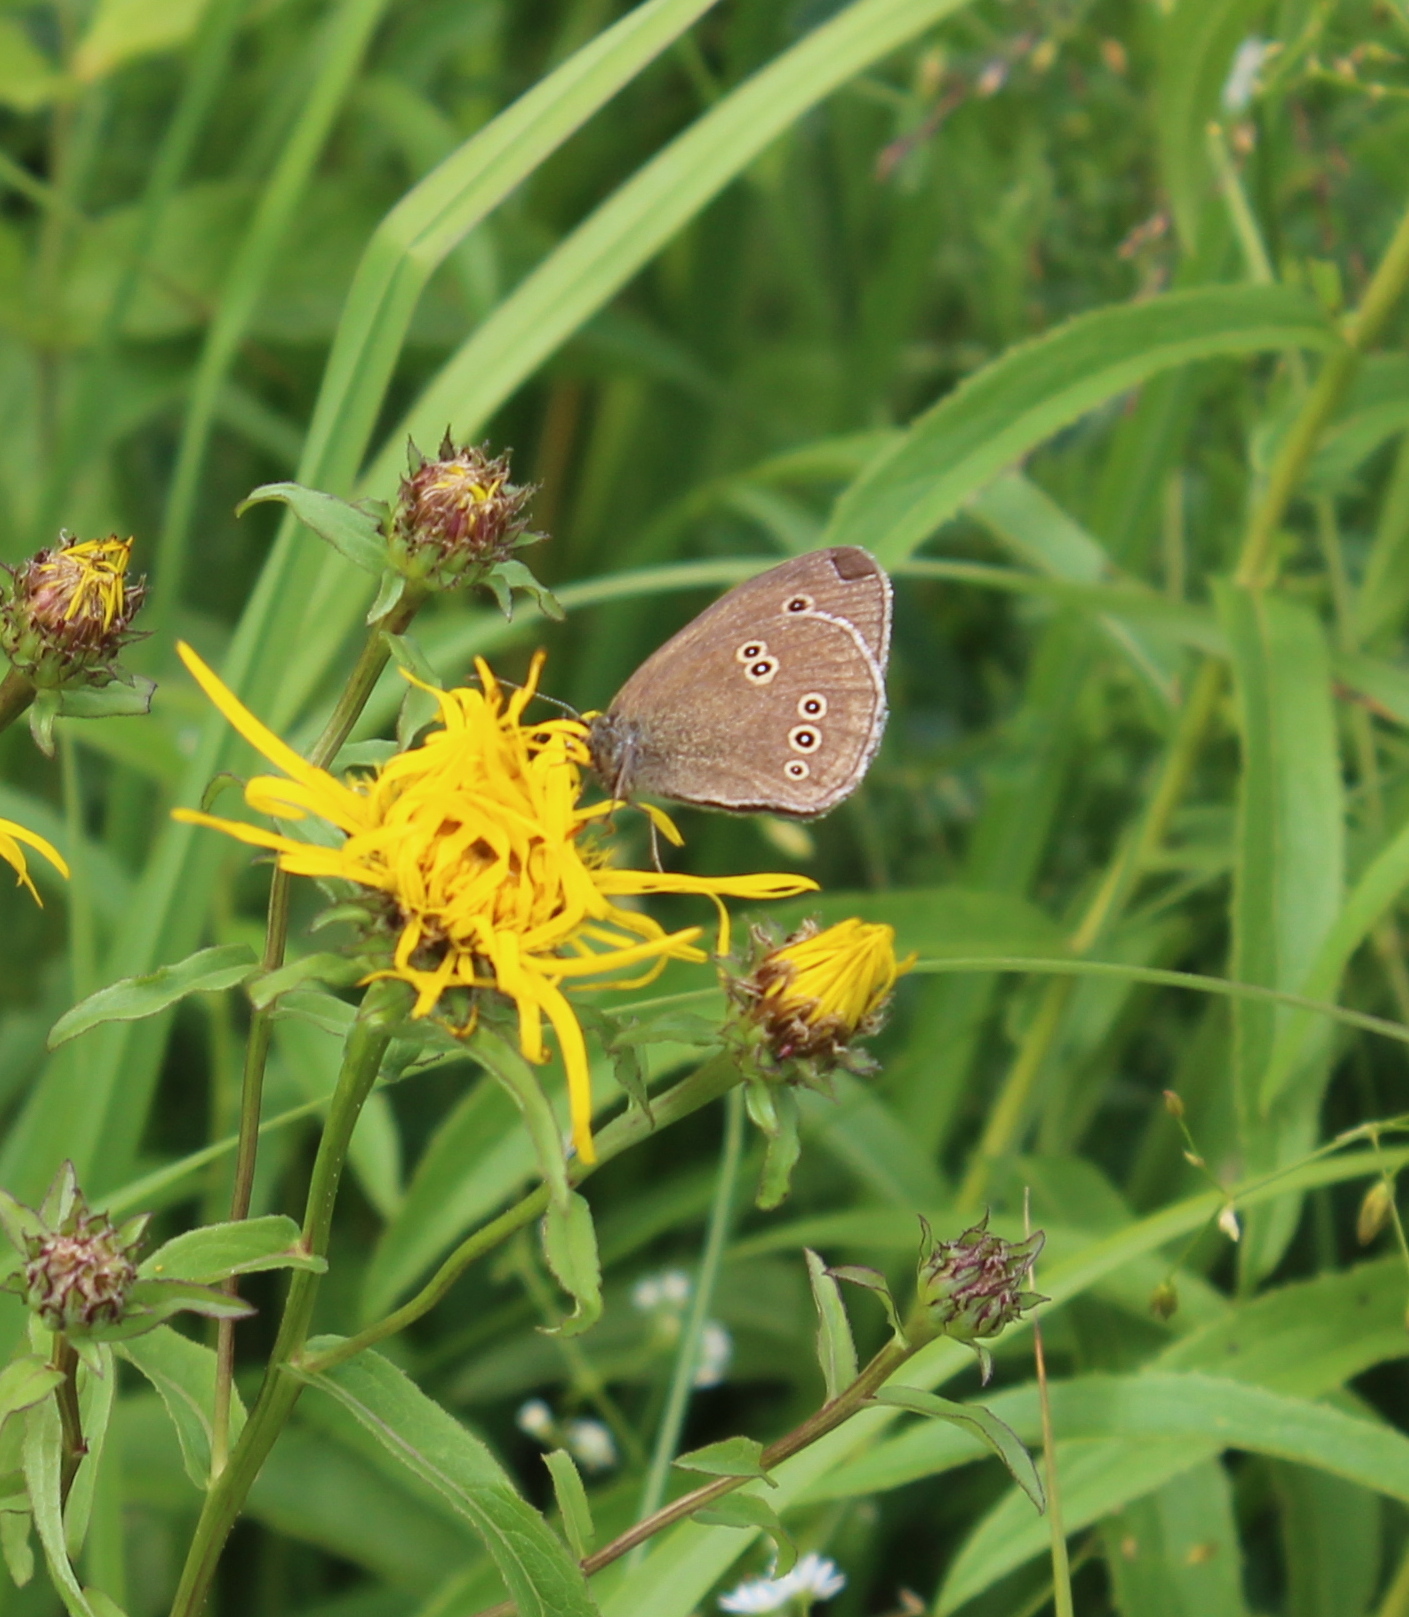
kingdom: Animalia
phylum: Arthropoda
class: Insecta
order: Lepidoptera
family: Nymphalidae
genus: Aphantopus
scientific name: Aphantopus hyperantus
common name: Ringlet
